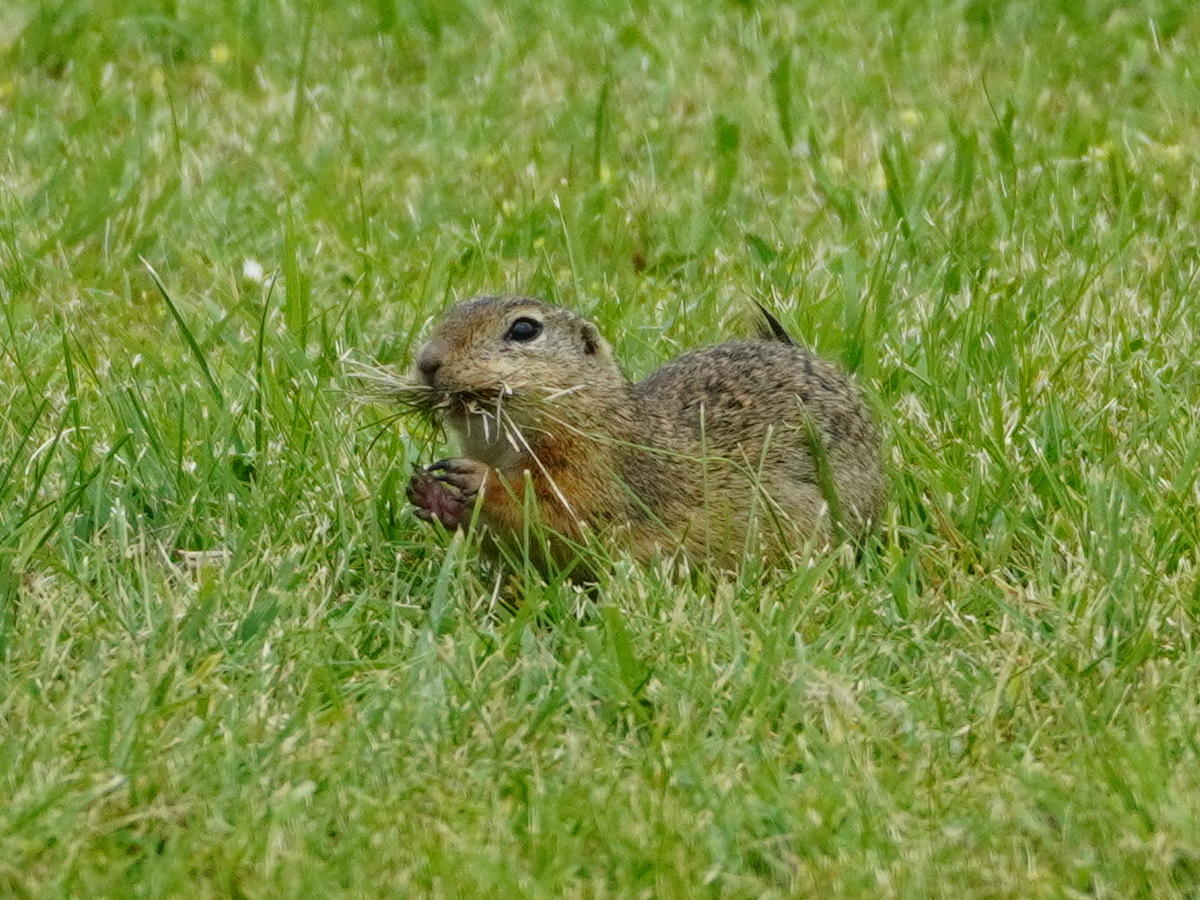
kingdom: Animalia
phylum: Chordata
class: Mammalia
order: Rodentia
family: Sciuridae
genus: Spermophilus
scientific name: Spermophilus citellus
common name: European ground squirrel
